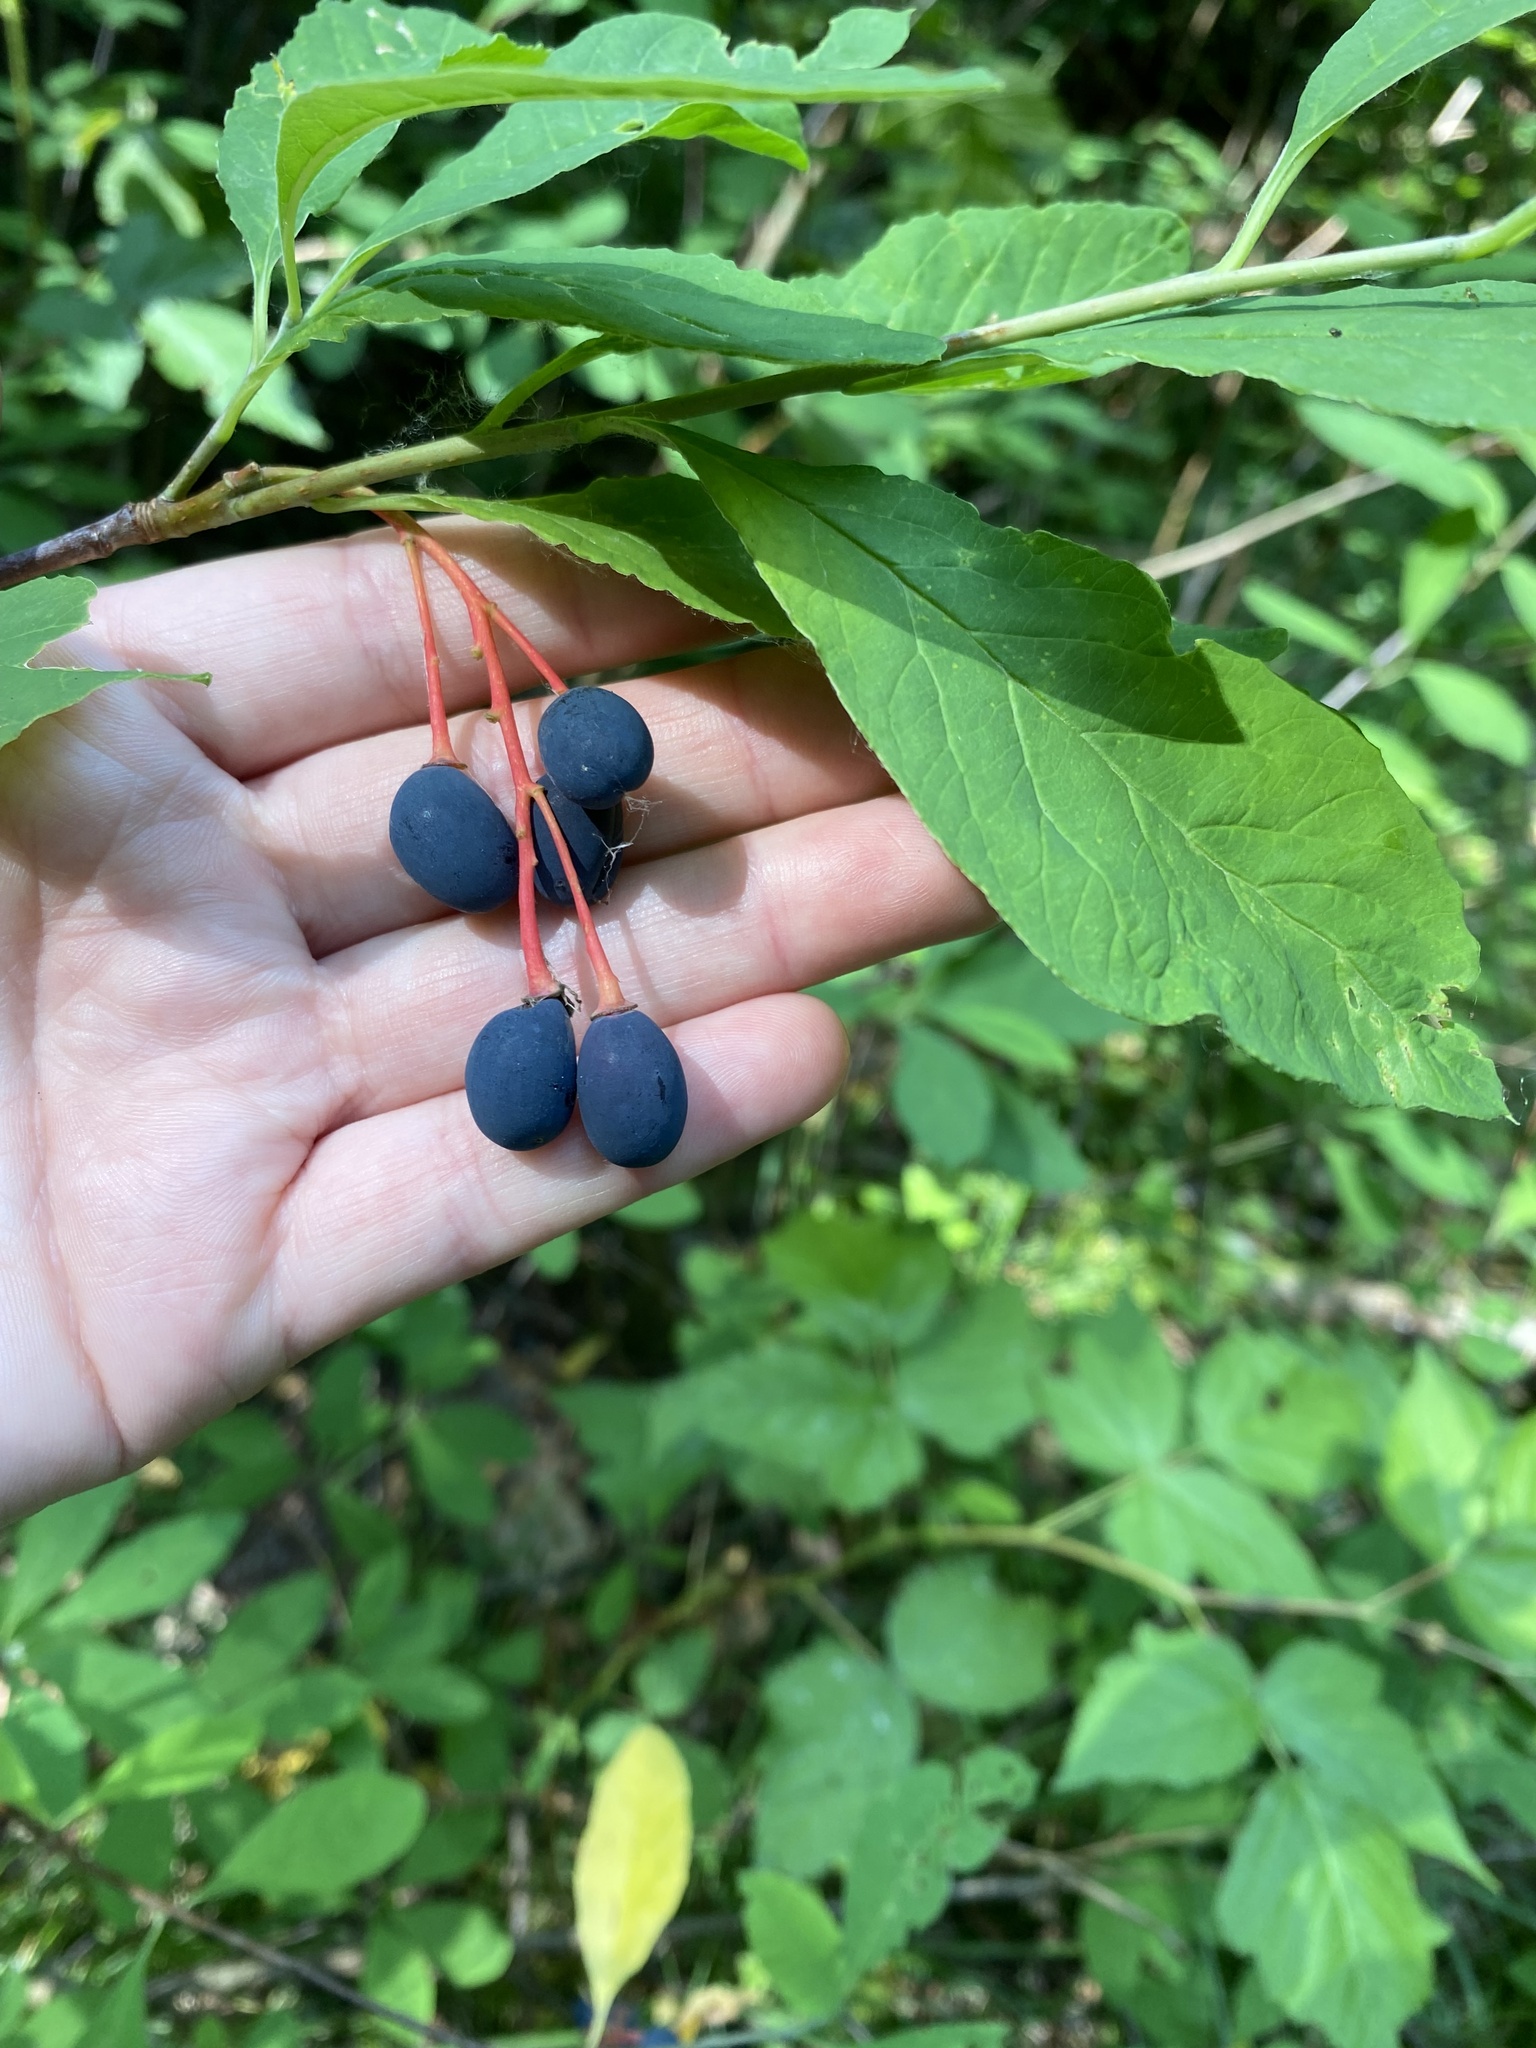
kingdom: Plantae
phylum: Tracheophyta
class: Magnoliopsida
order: Rosales
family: Rosaceae
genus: Oemleria
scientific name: Oemleria cerasiformis
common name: Osoberry
